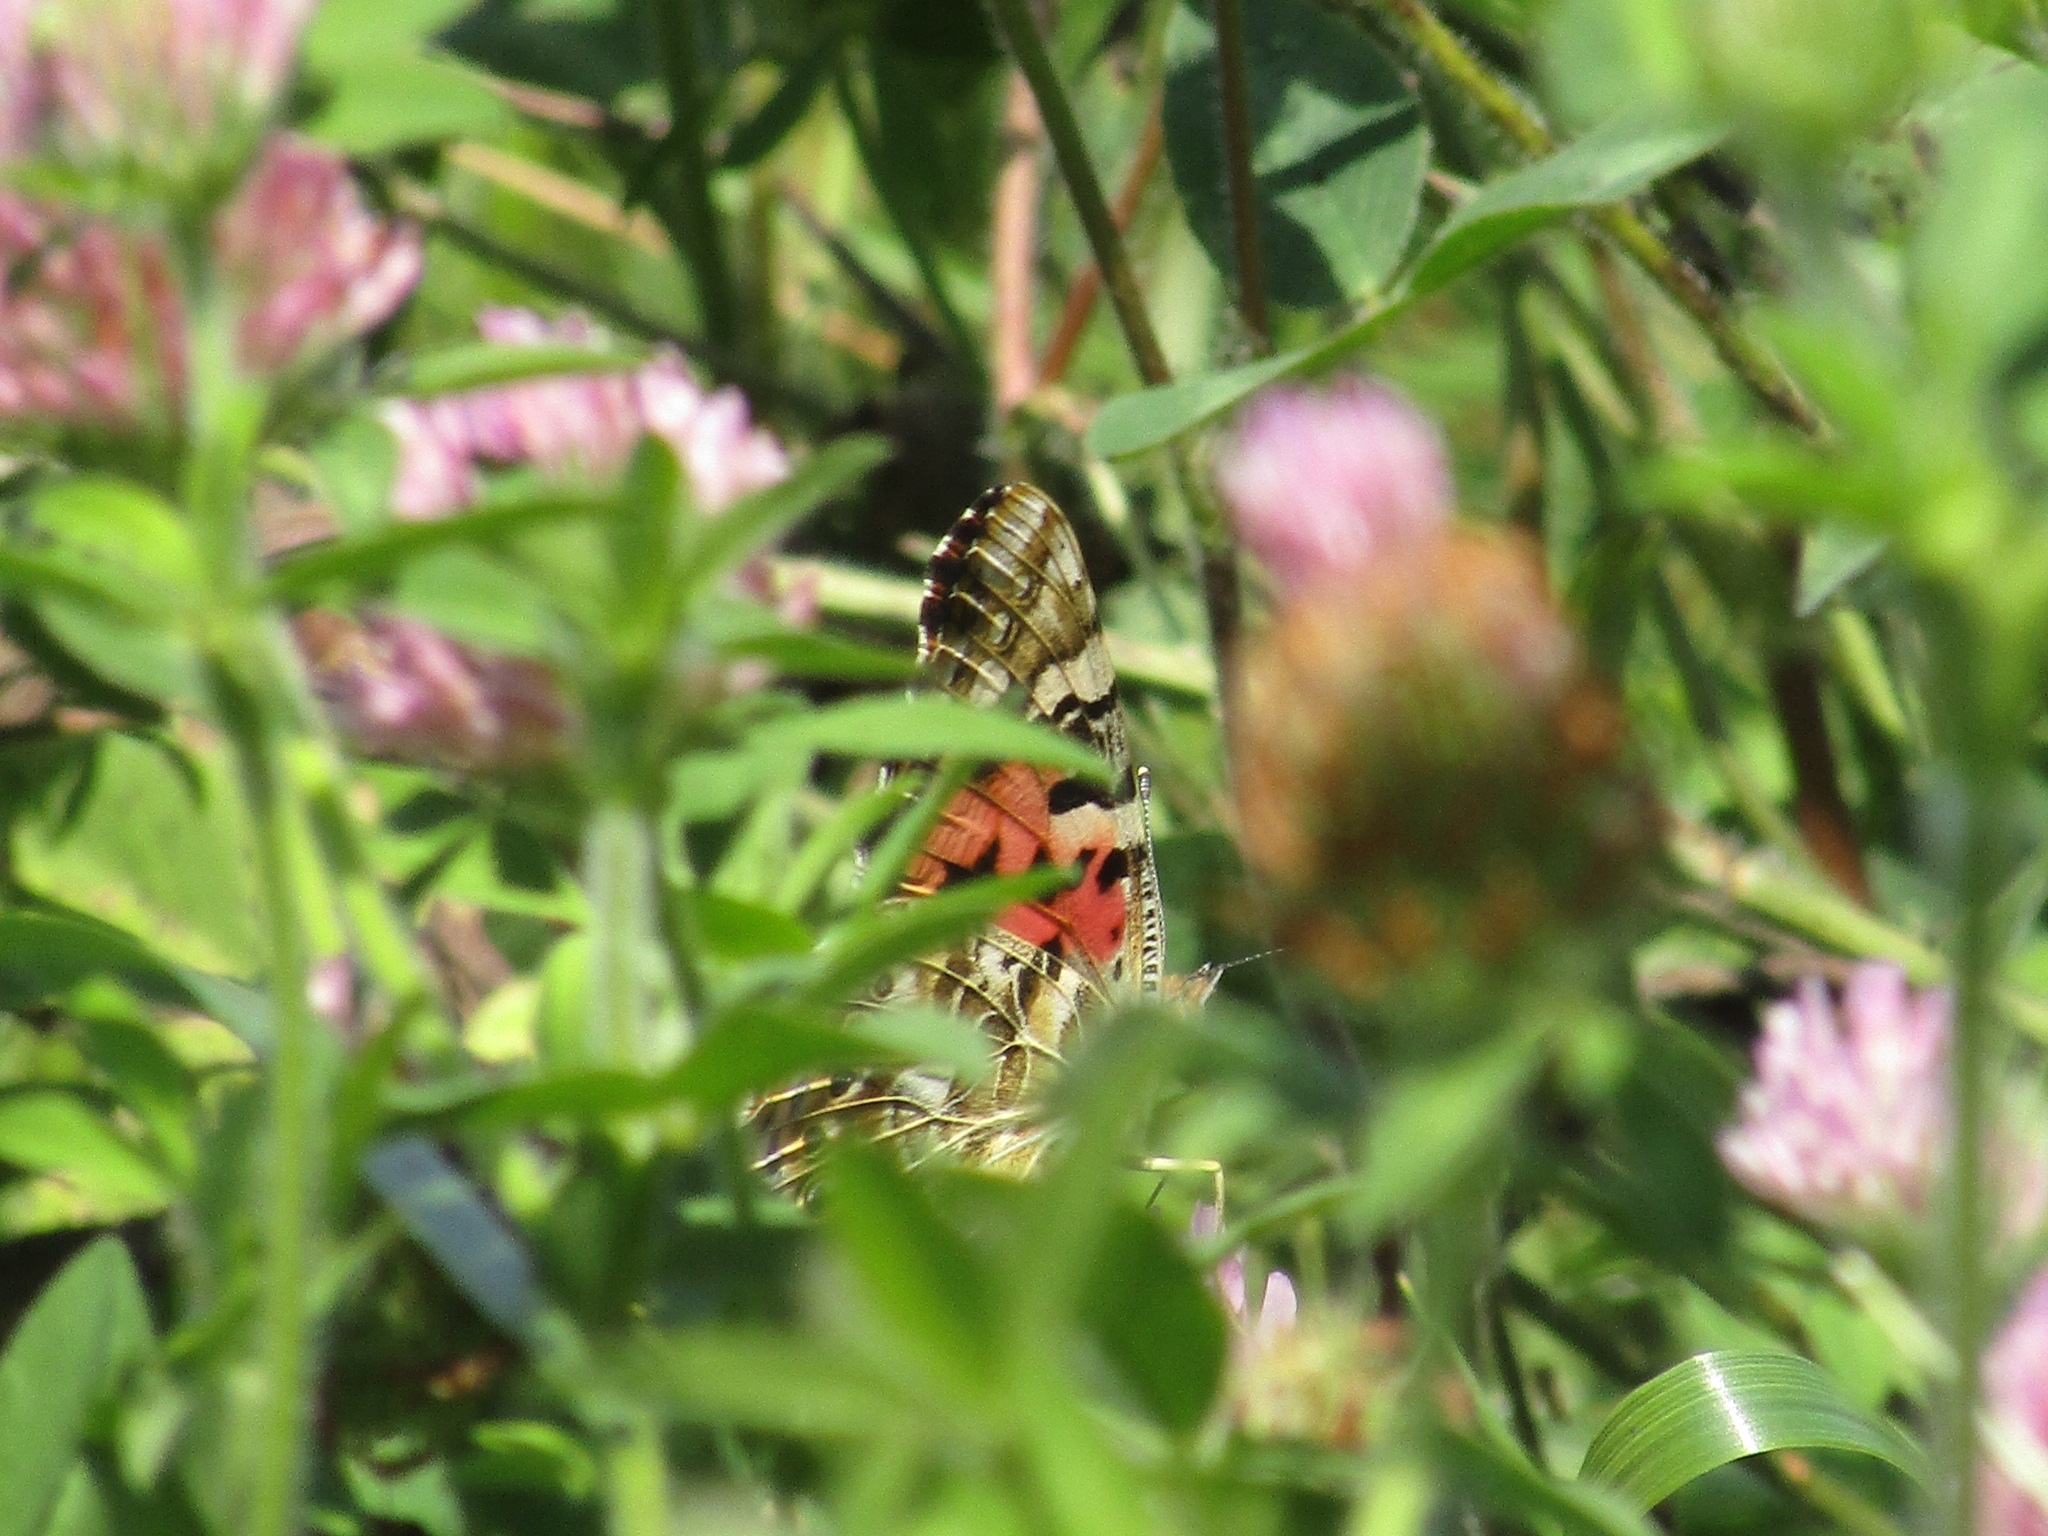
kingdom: Animalia
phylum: Arthropoda
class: Insecta
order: Lepidoptera
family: Nymphalidae
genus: Vanessa
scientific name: Vanessa cardui
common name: Painted lady
